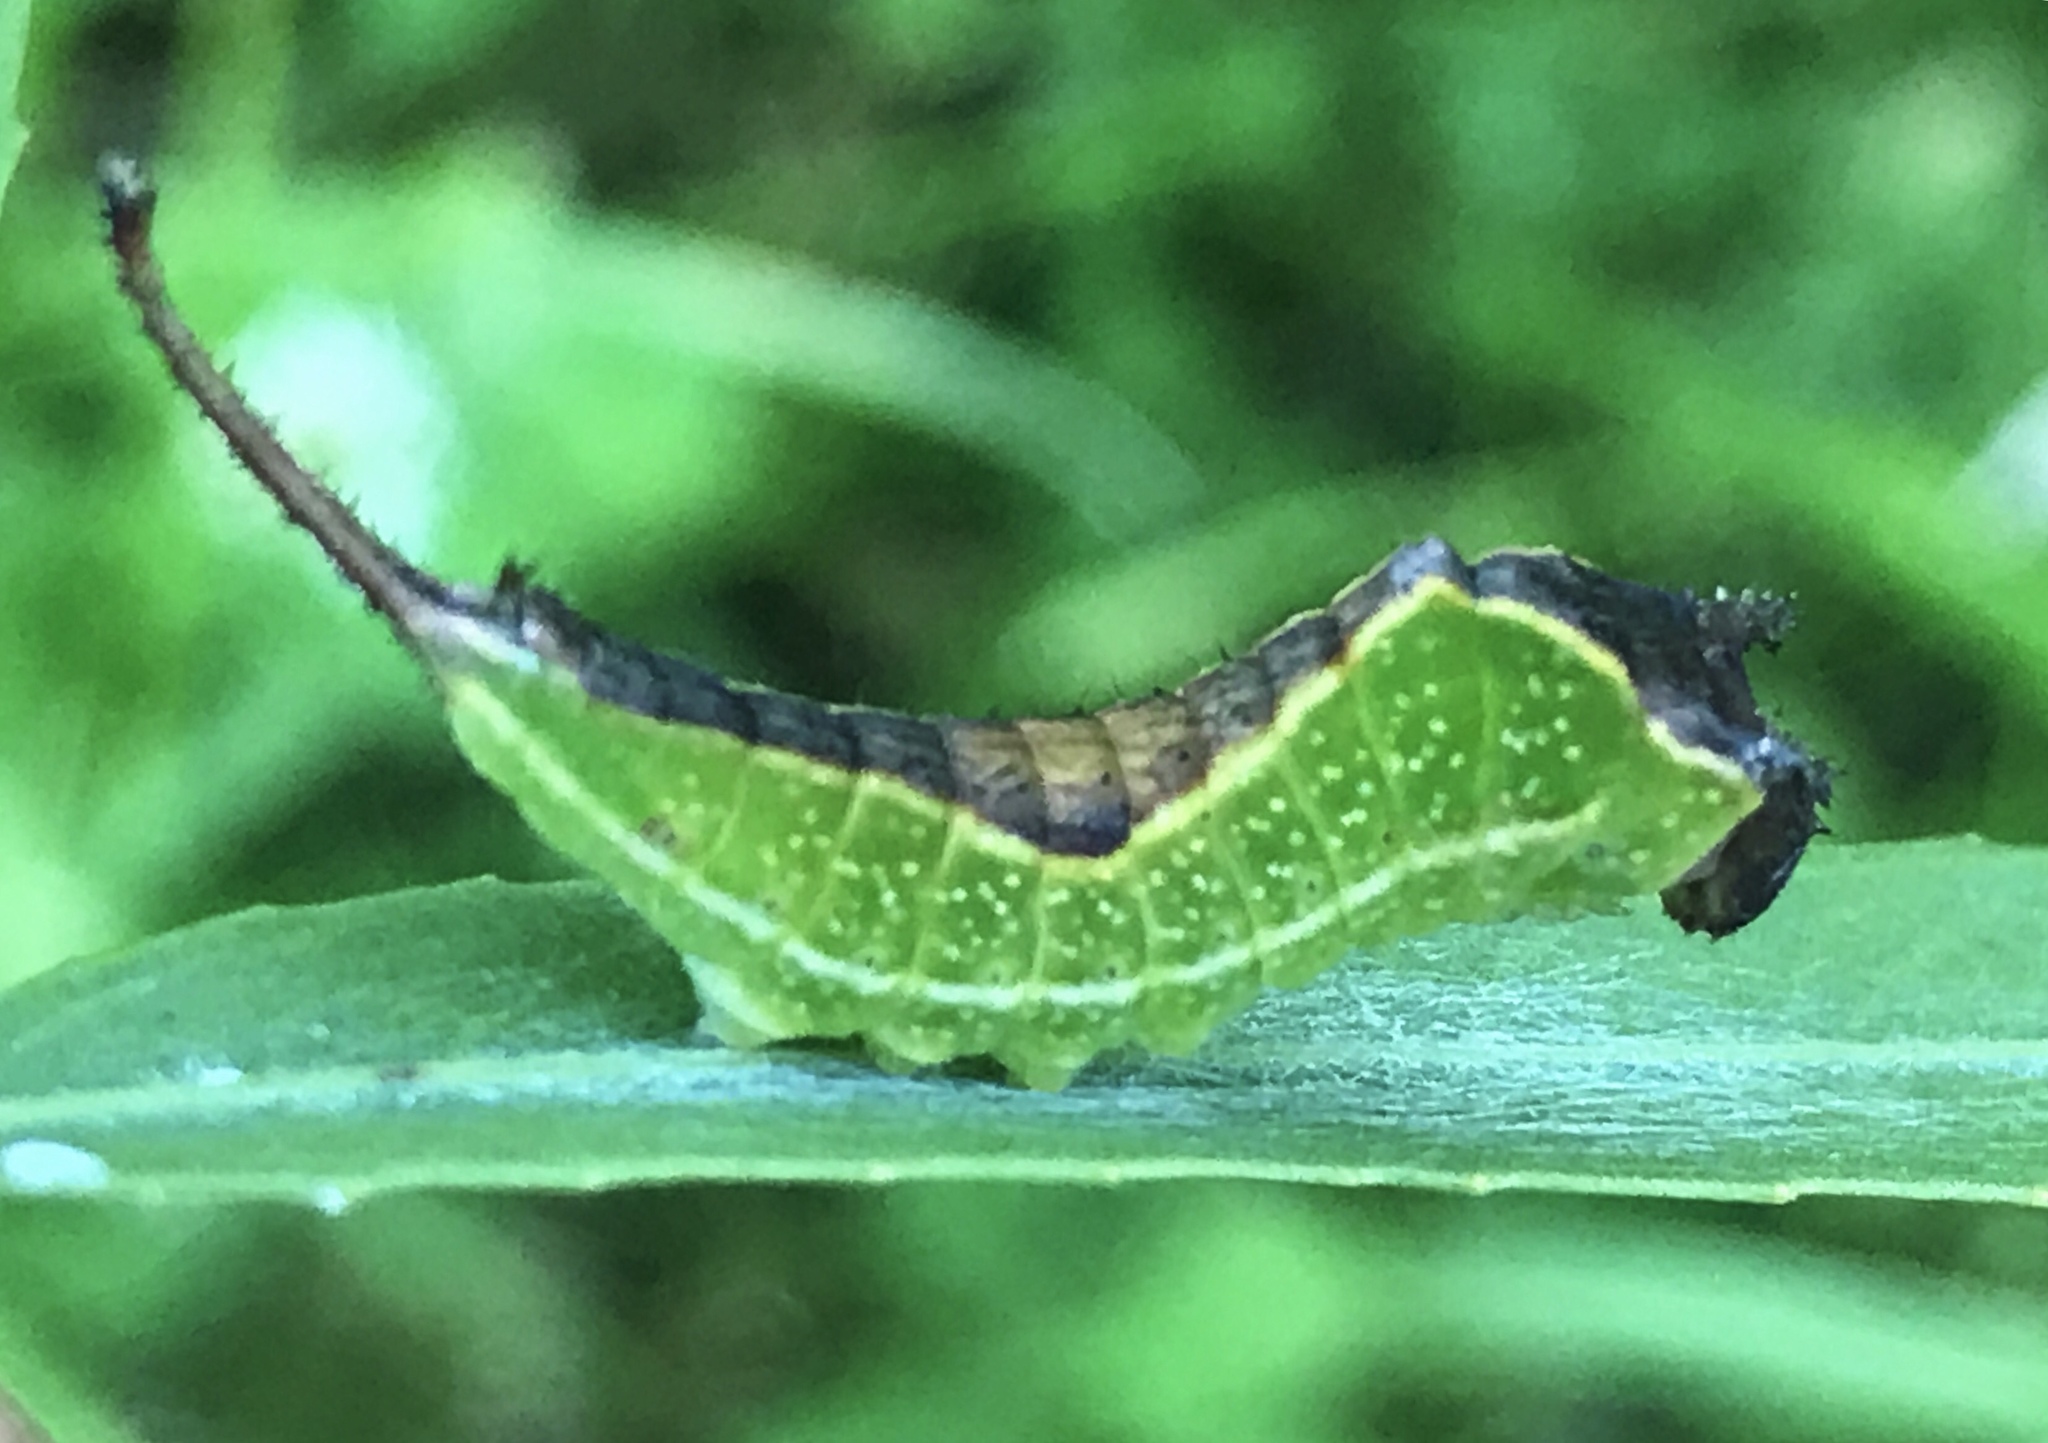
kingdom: Animalia
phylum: Arthropoda
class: Insecta
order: Lepidoptera
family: Notodontidae
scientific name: Notodontidae
